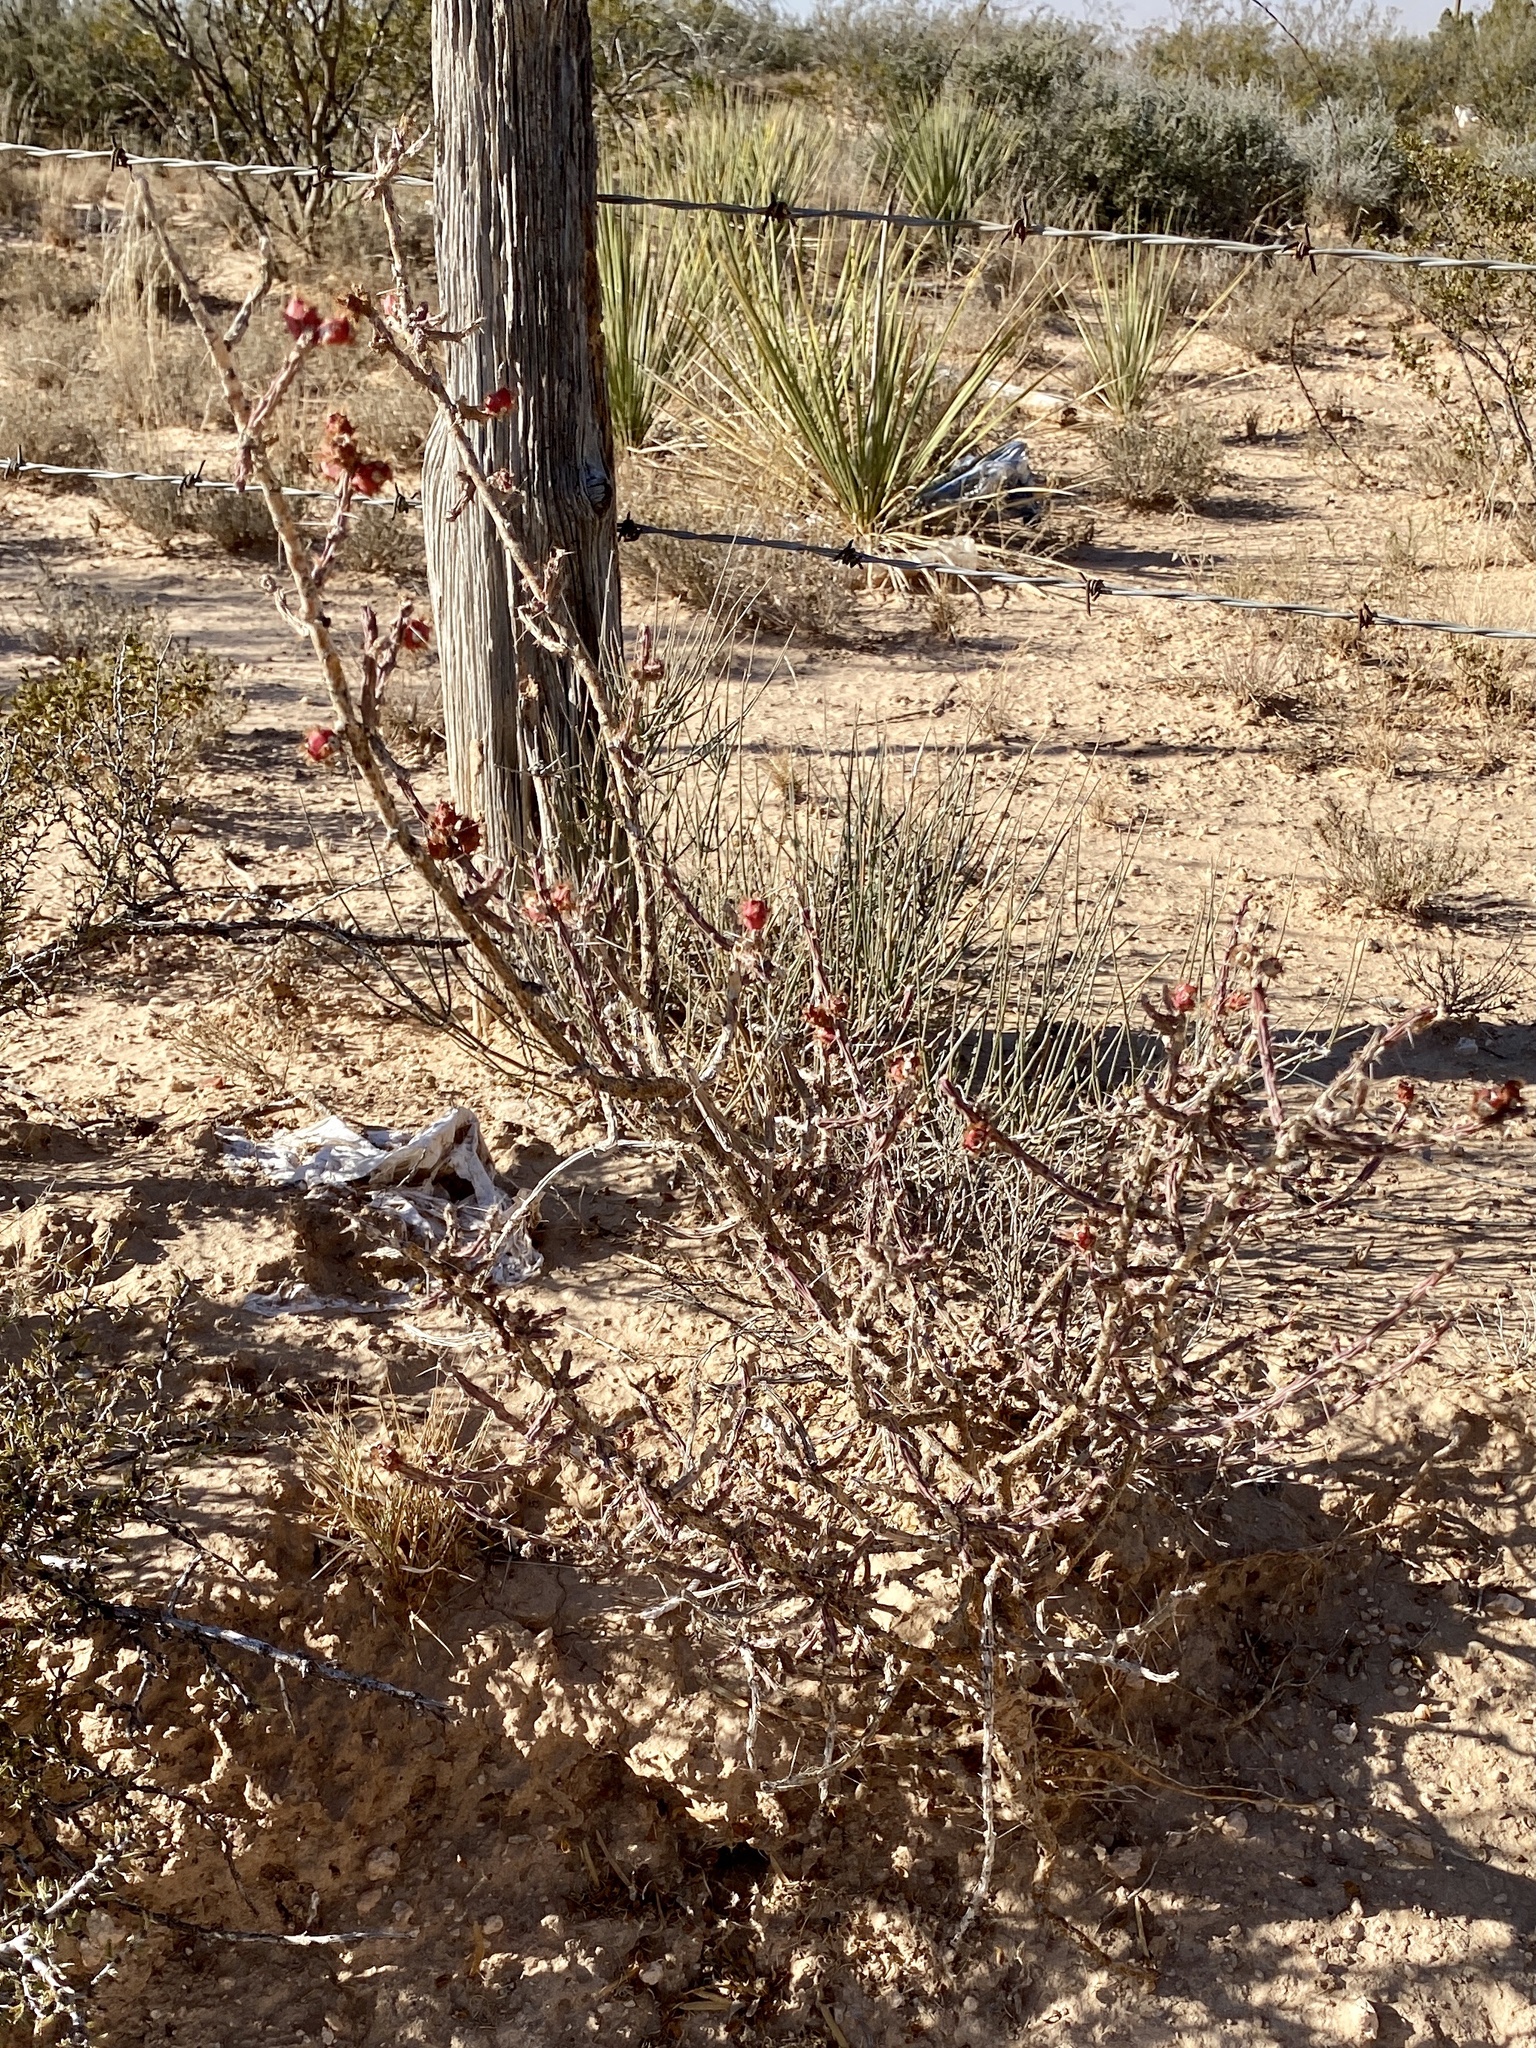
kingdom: Plantae
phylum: Tracheophyta
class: Magnoliopsida
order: Caryophyllales
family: Cactaceae
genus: Cylindropuntia
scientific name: Cylindropuntia leptocaulis
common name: Christmas cactus
